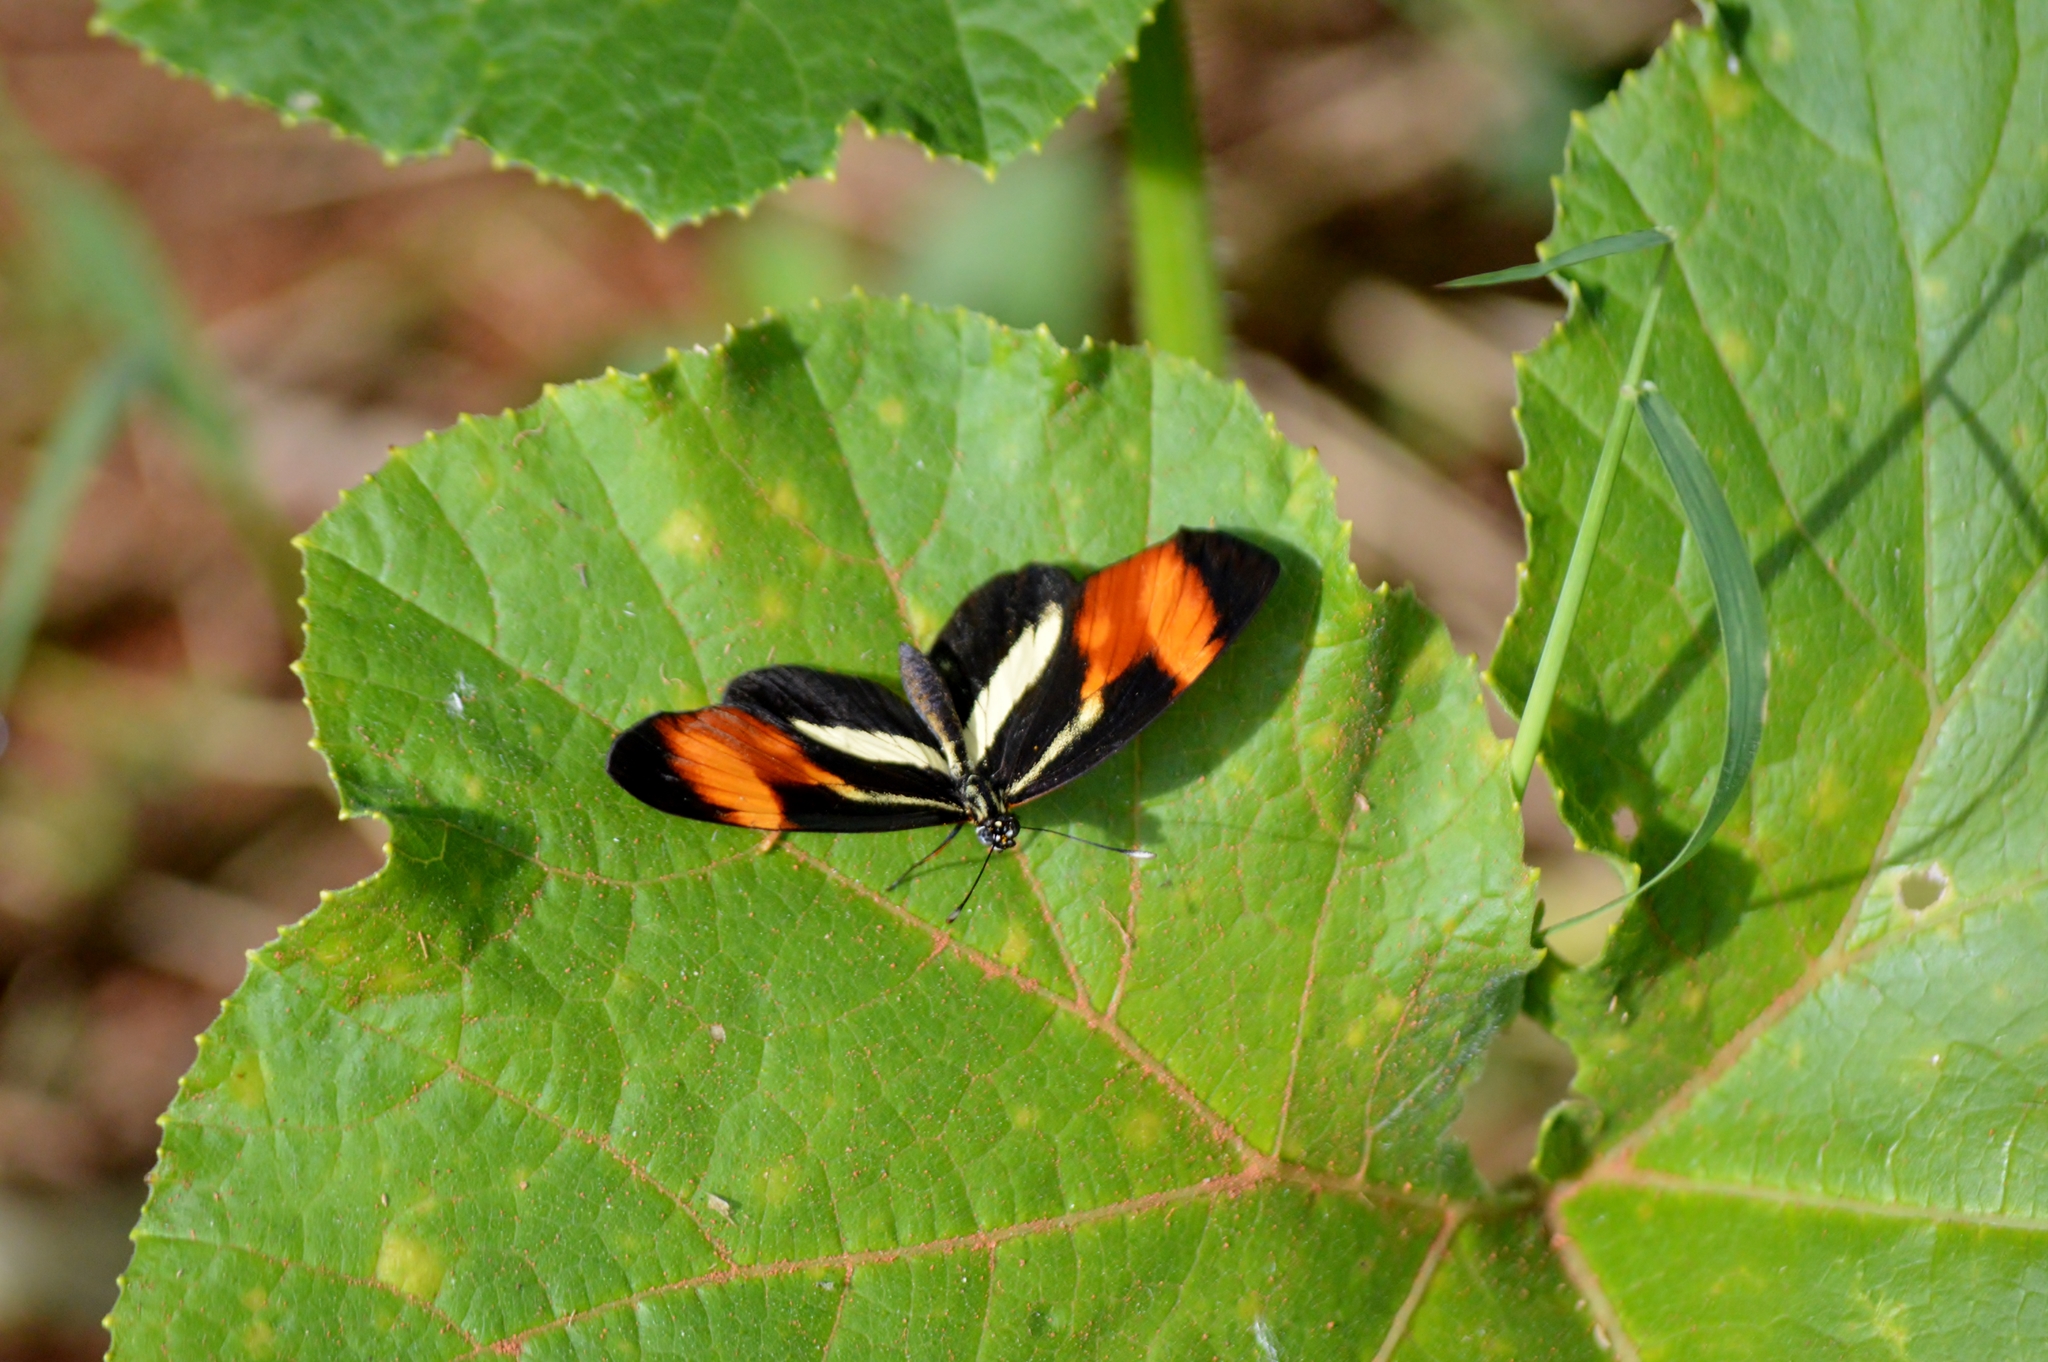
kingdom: Animalia
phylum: Arthropoda
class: Insecta
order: Lepidoptera
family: Nymphalidae
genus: Eresia
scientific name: Eresia lansdorfi
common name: Lansdorf's crescent
